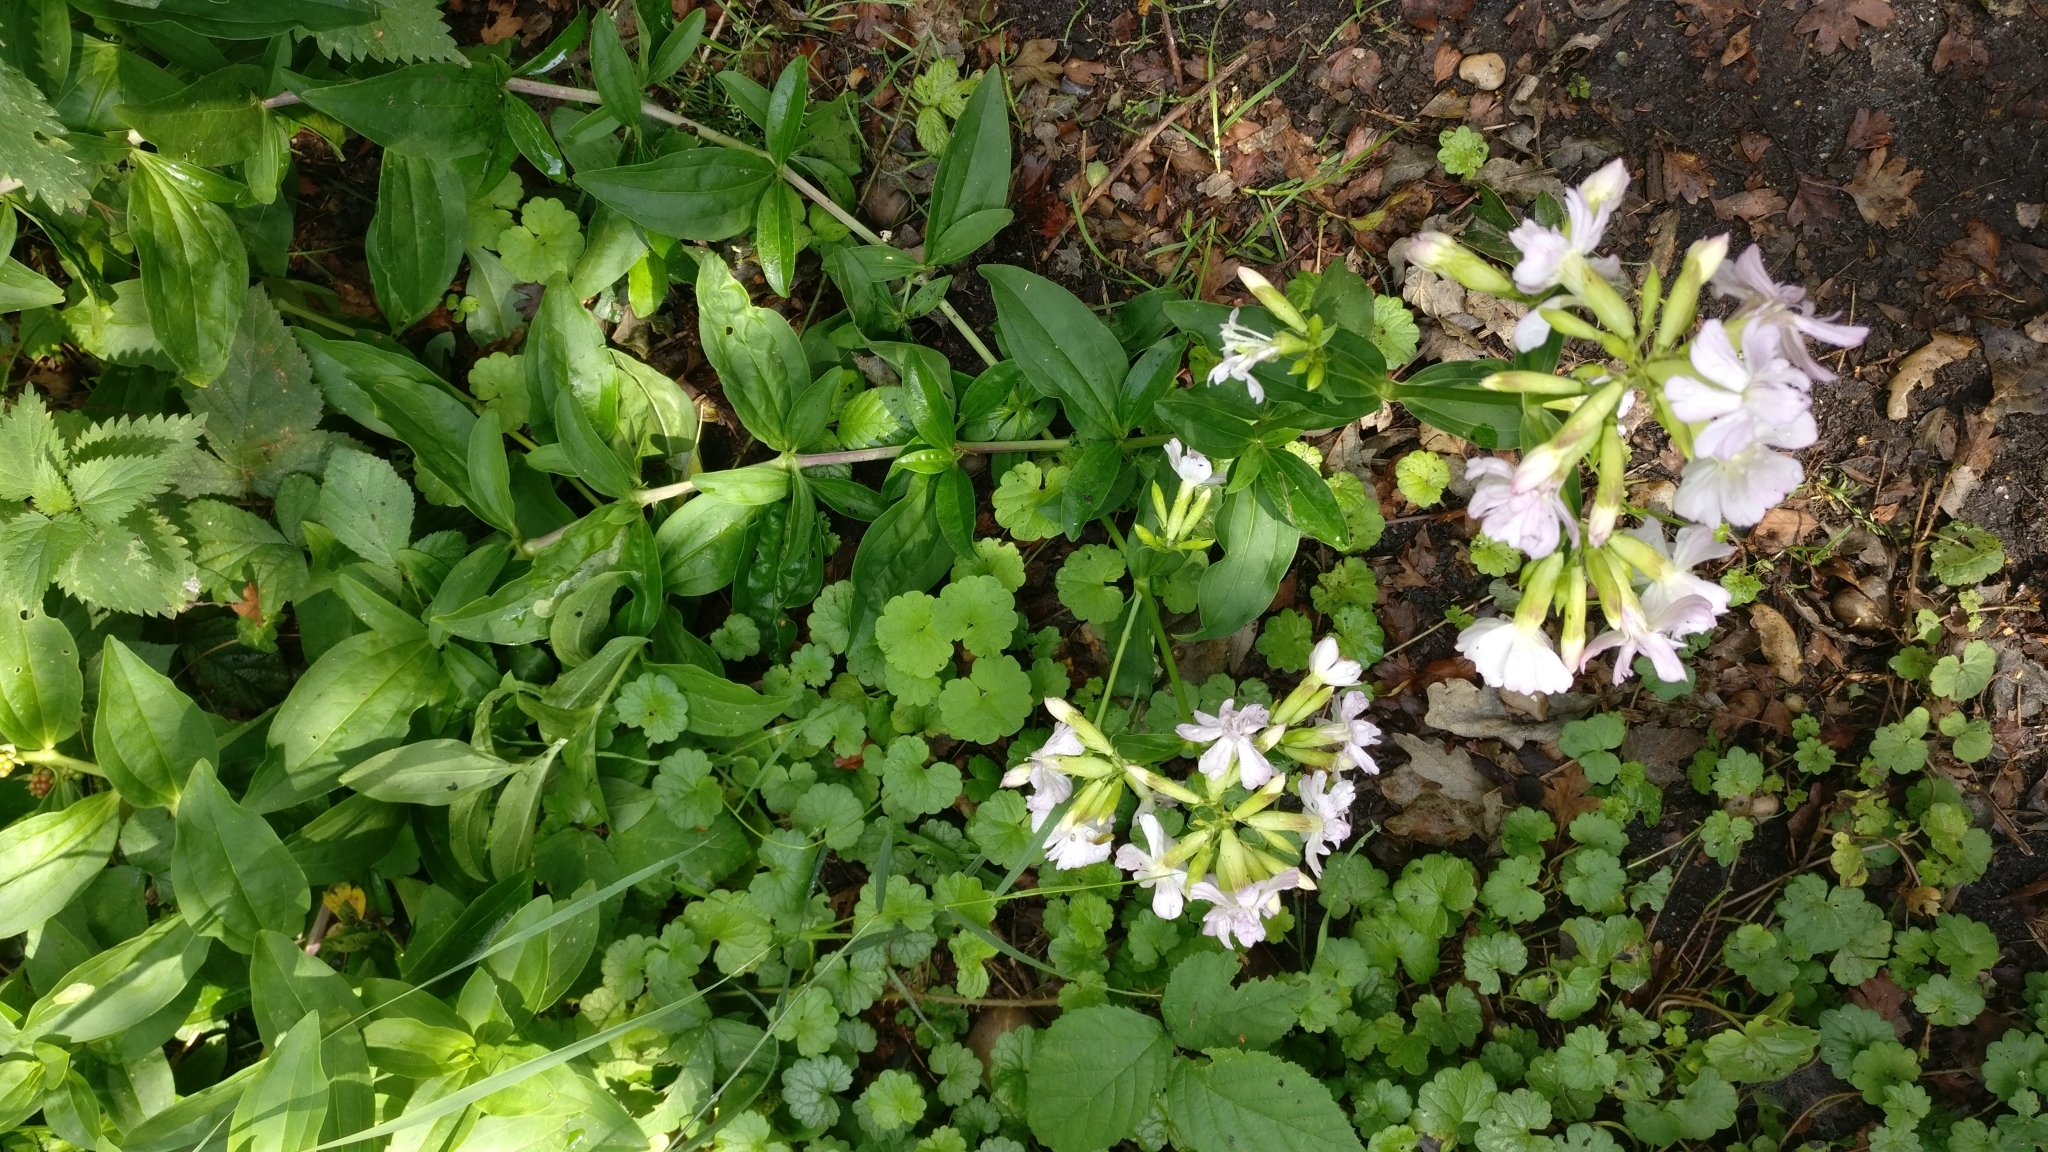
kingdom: Plantae
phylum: Tracheophyta
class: Magnoliopsida
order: Caryophyllales
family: Caryophyllaceae
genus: Saponaria
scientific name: Saponaria officinalis
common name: Soapwort
